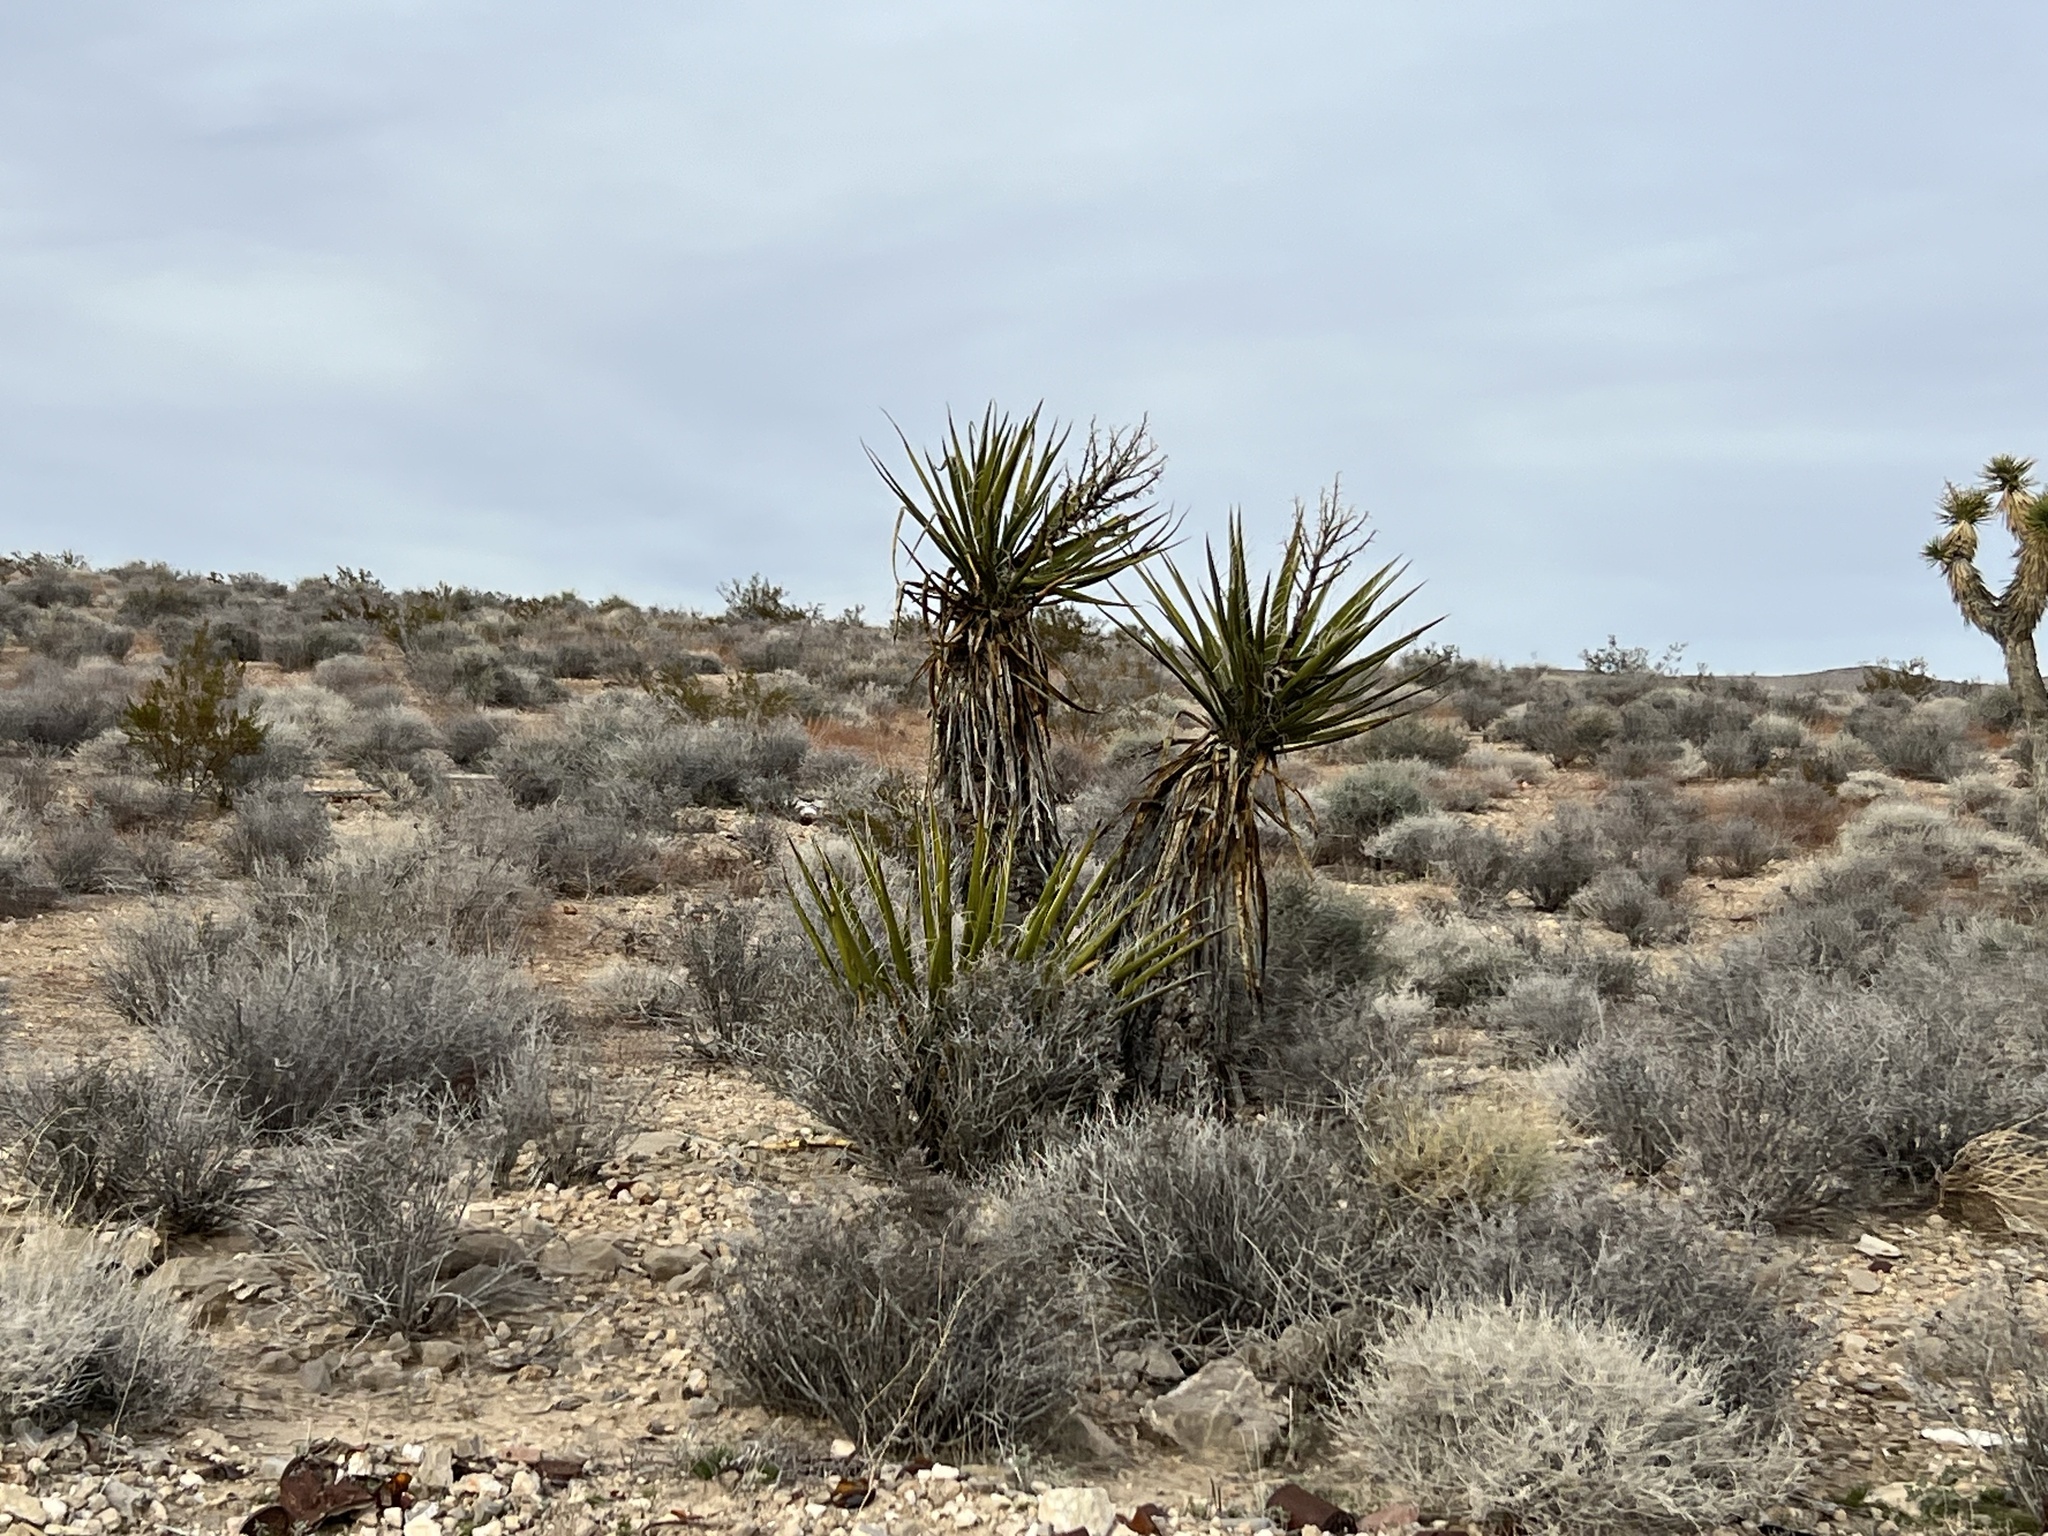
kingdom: Plantae
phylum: Tracheophyta
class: Liliopsida
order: Asparagales
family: Asparagaceae
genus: Yucca
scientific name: Yucca schidigera
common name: Mojave yucca
